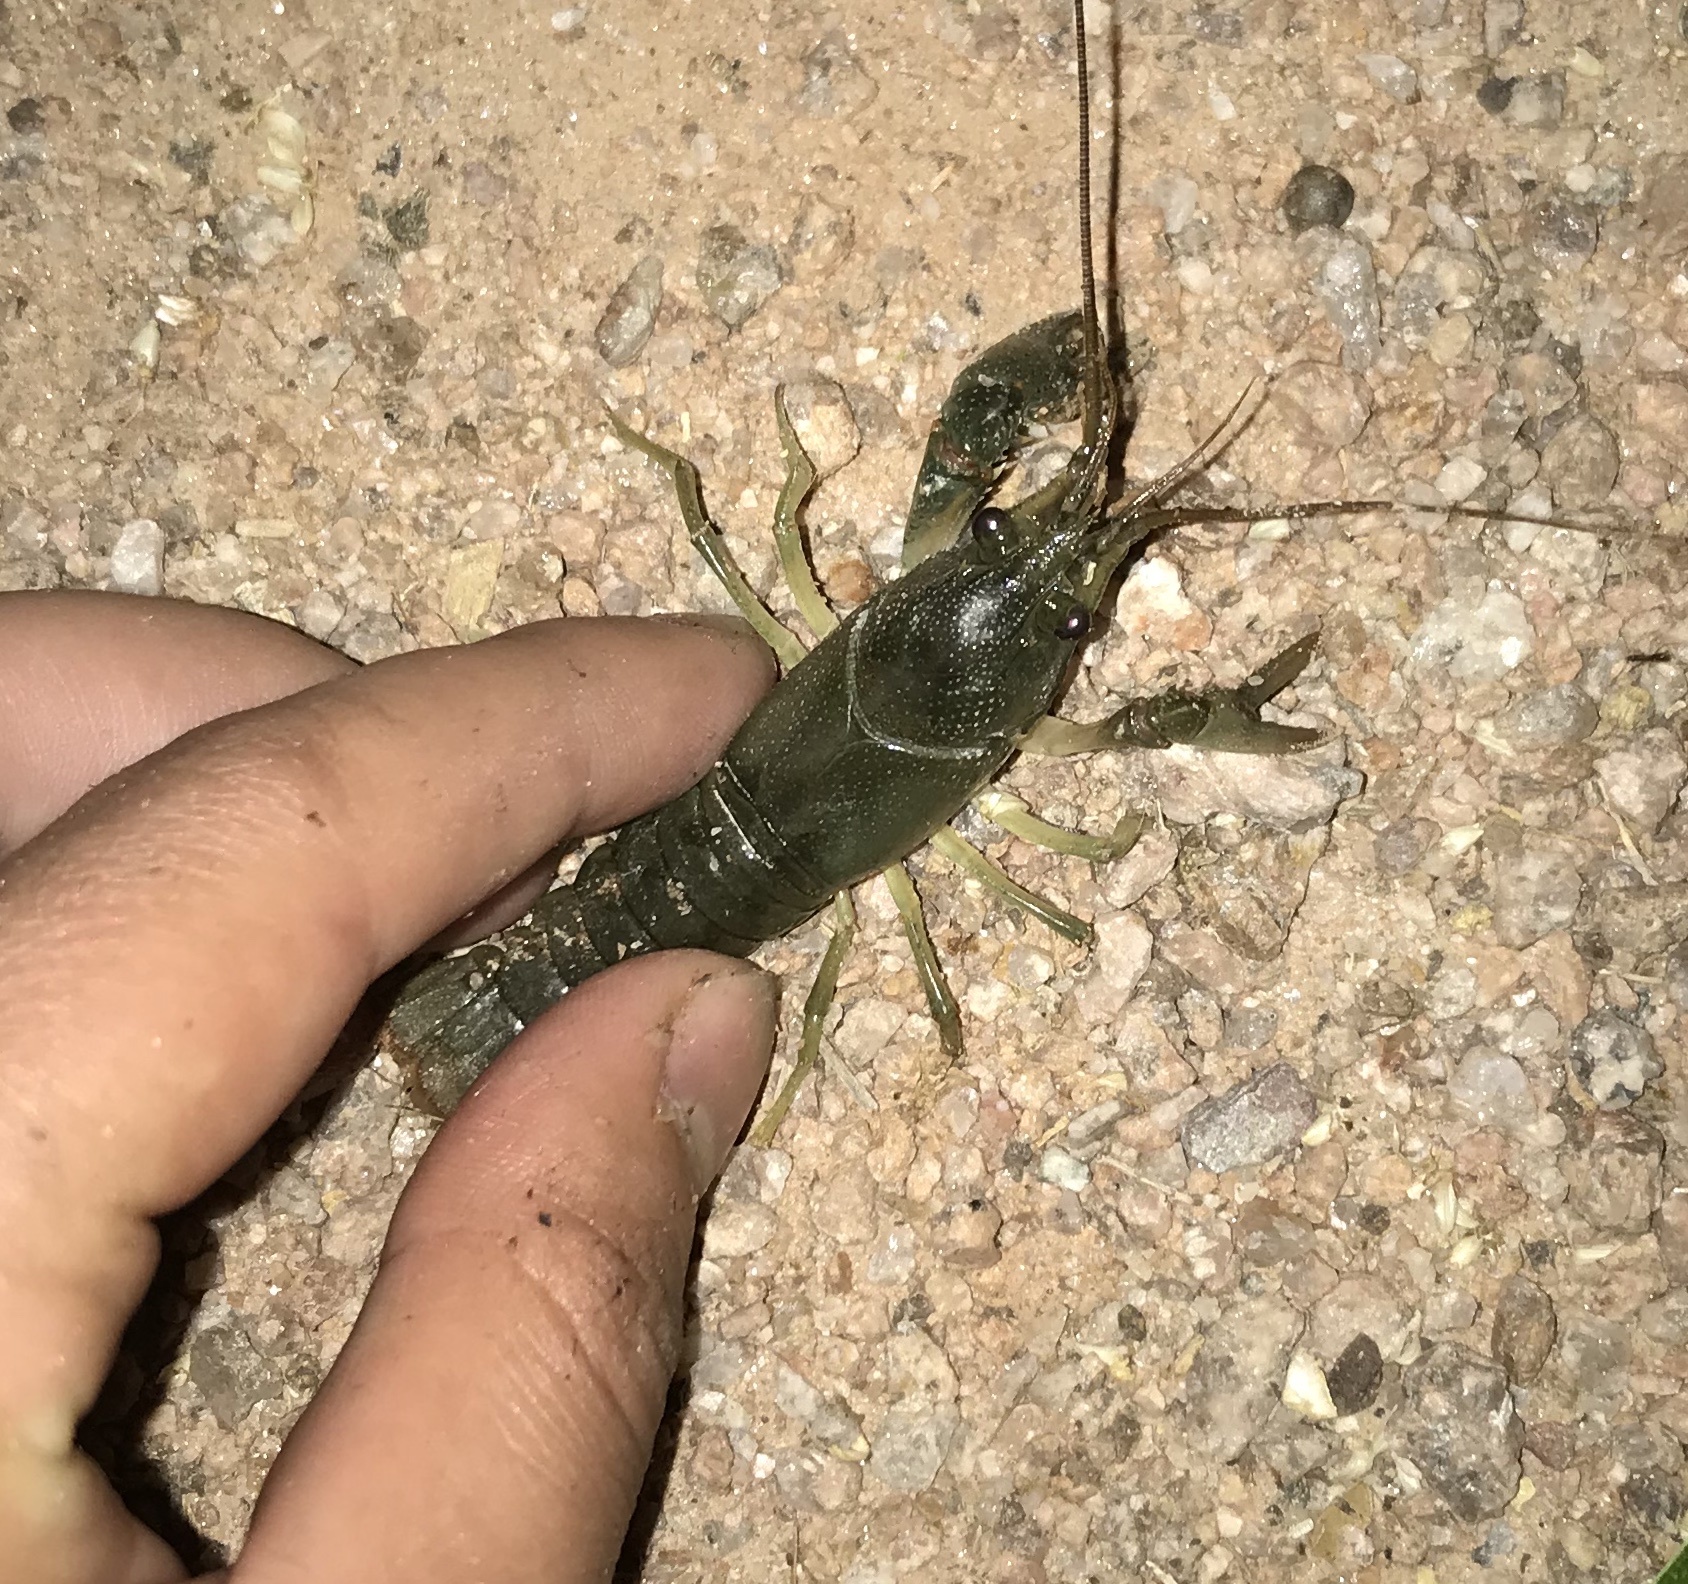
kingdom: Animalia
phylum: Arthropoda
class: Malacostraca
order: Decapoda
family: Cambaridae
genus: Faxonius
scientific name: Faxonius virilis
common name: Virile crayfish
